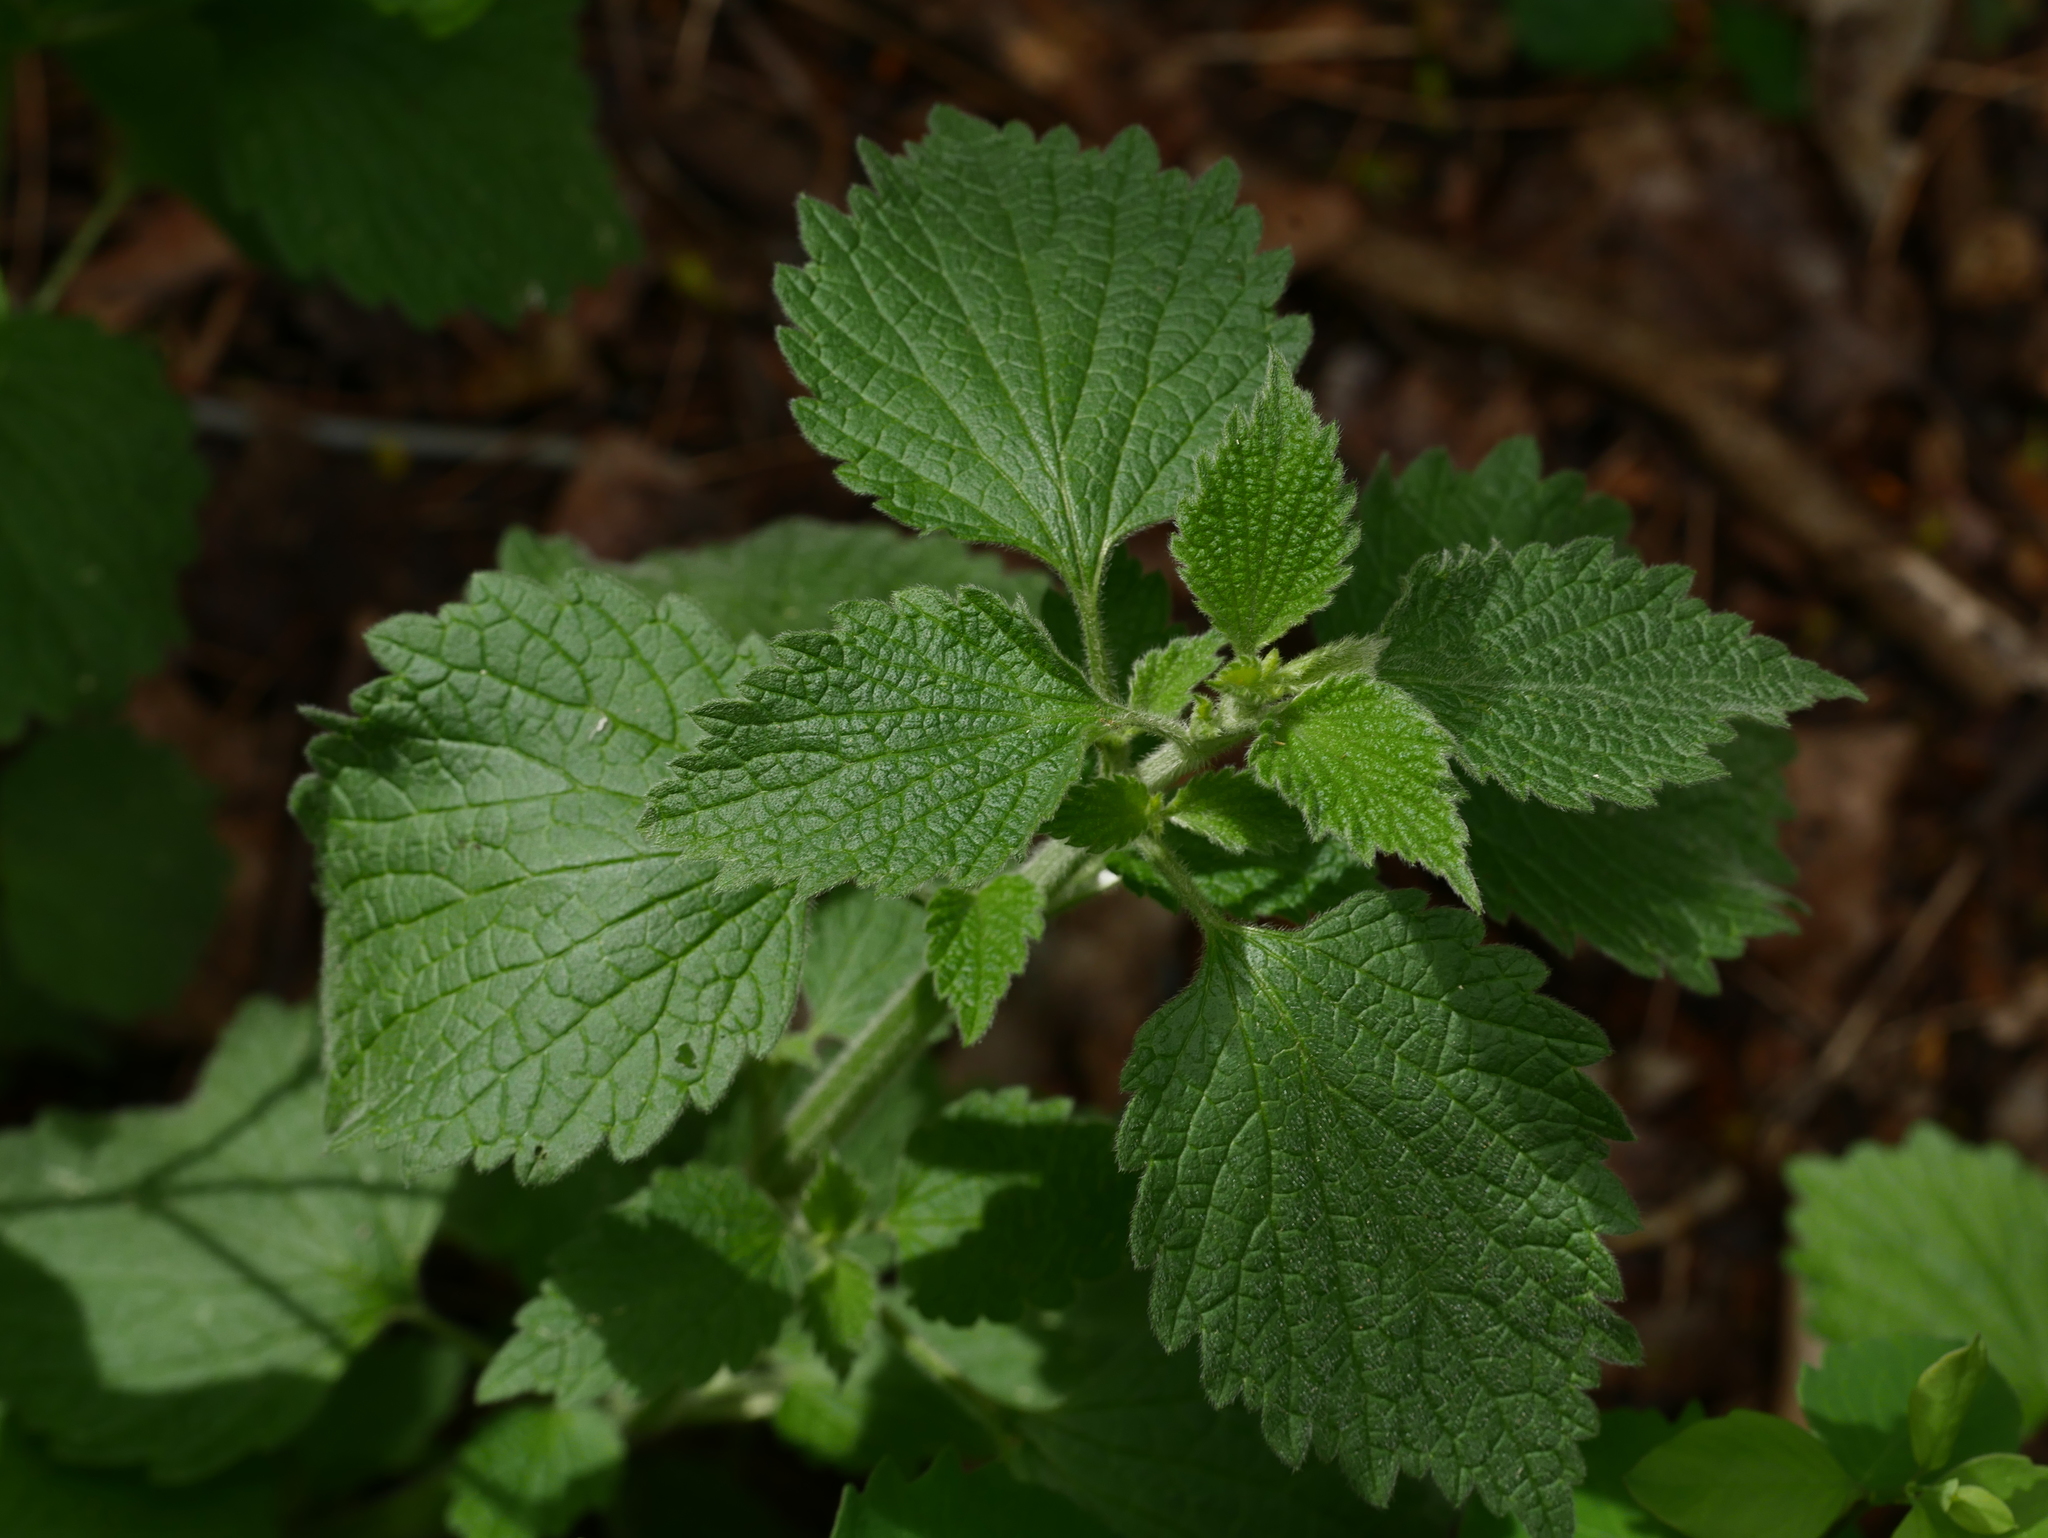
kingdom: Plantae
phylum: Tracheophyta
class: Magnoliopsida
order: Lamiales
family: Lamiaceae
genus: Ballota
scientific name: Ballota nigra
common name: Black horehound
